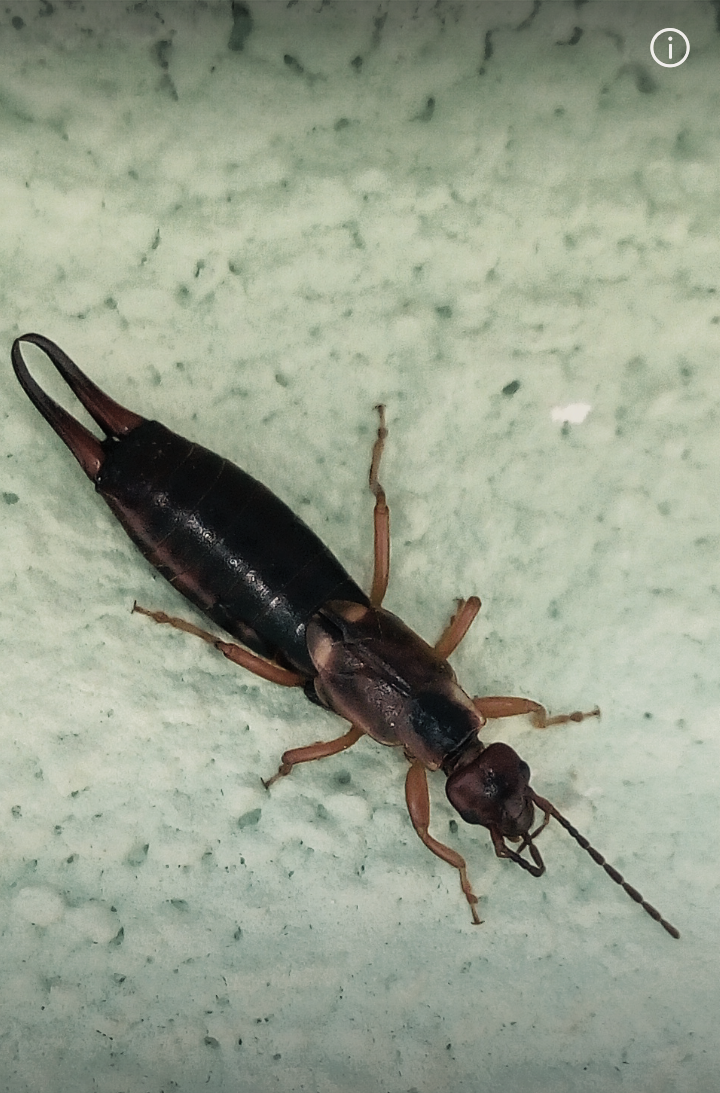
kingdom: Animalia
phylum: Arthropoda
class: Insecta
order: Dermaptera
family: Forficulidae
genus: Forficula
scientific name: Forficula
